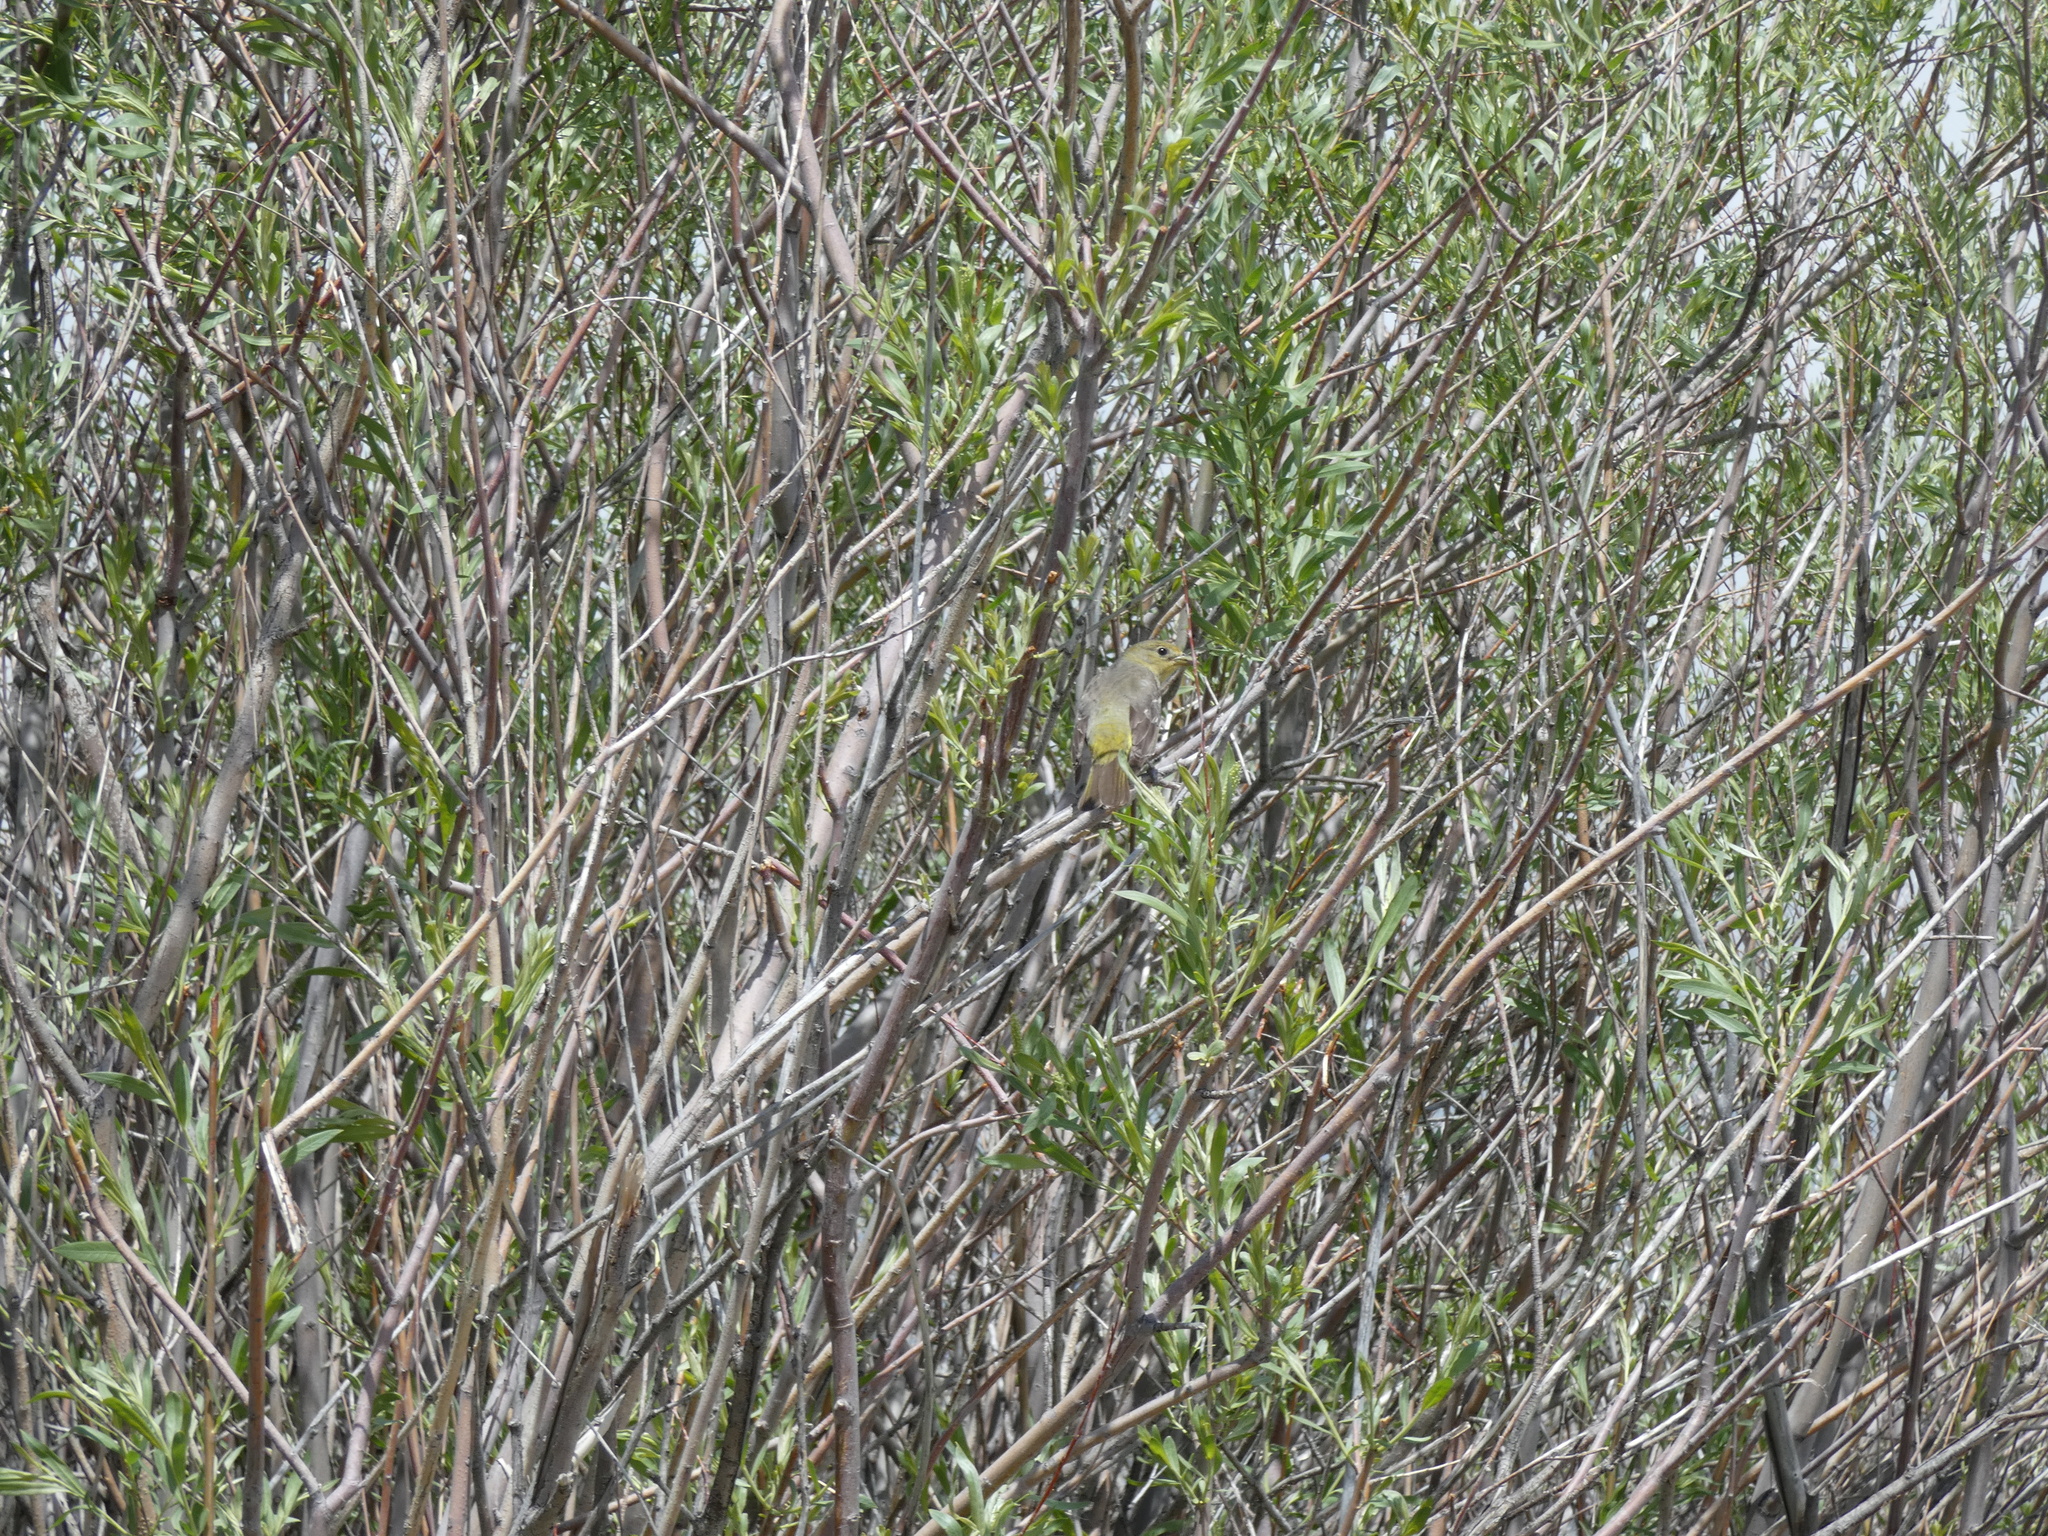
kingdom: Animalia
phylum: Chordata
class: Aves
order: Passeriformes
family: Cardinalidae
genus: Piranga
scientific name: Piranga ludoviciana
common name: Western tanager
